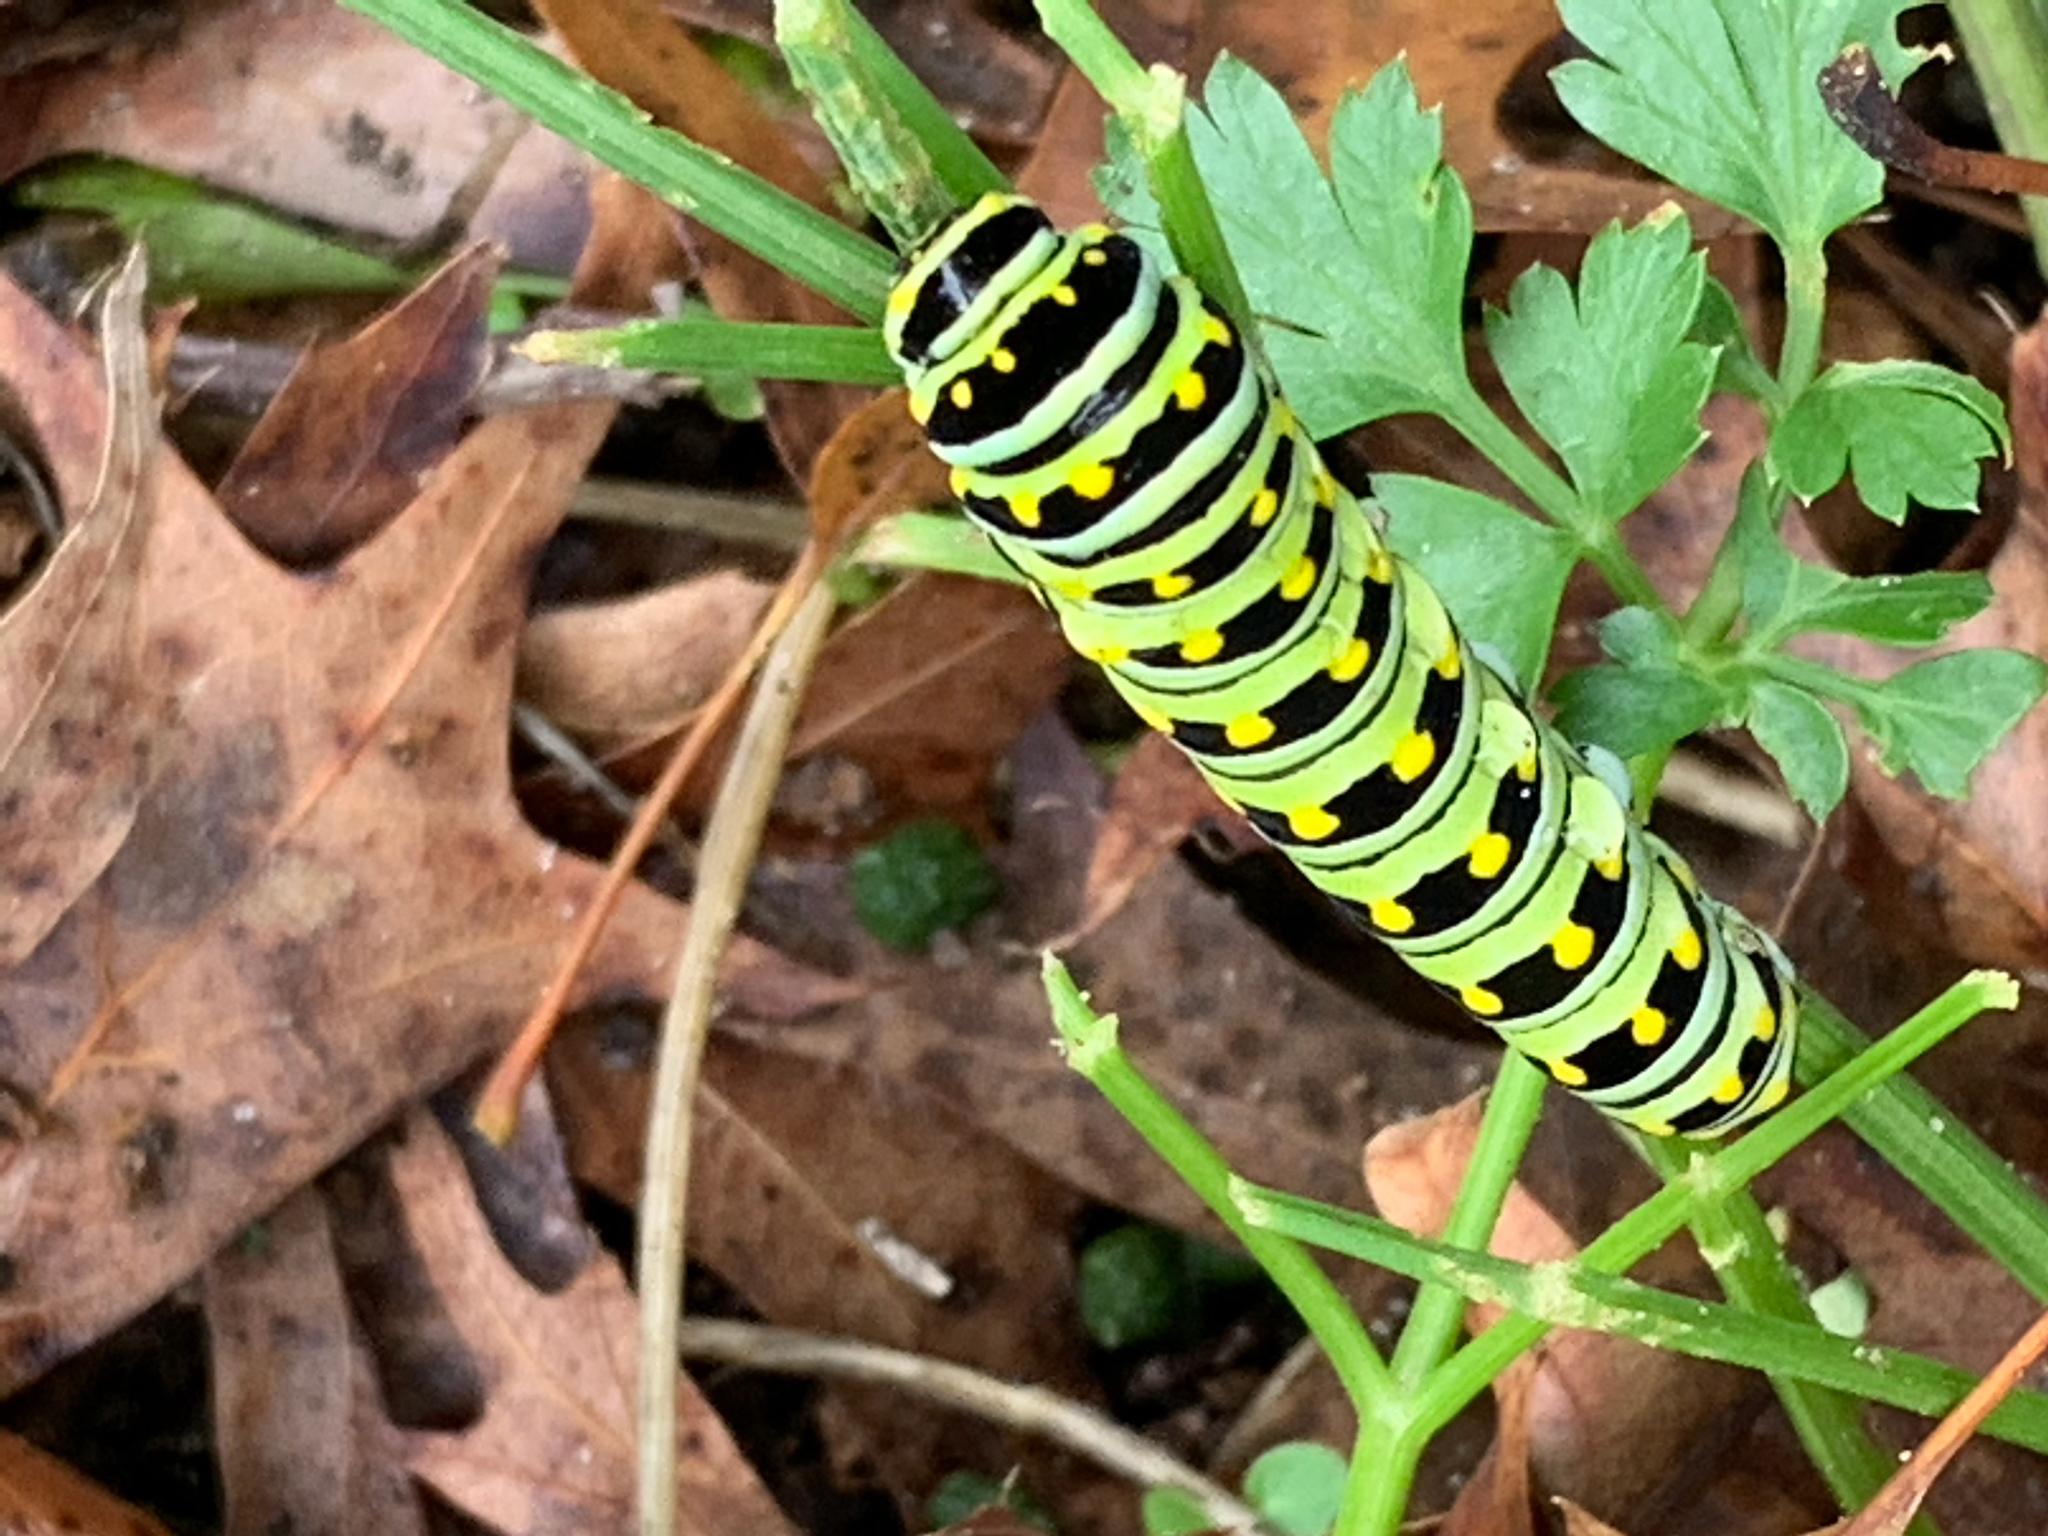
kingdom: Animalia
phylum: Arthropoda
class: Insecta
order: Lepidoptera
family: Papilionidae
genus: Papilio
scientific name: Papilio polyxenes
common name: Black swallowtail
